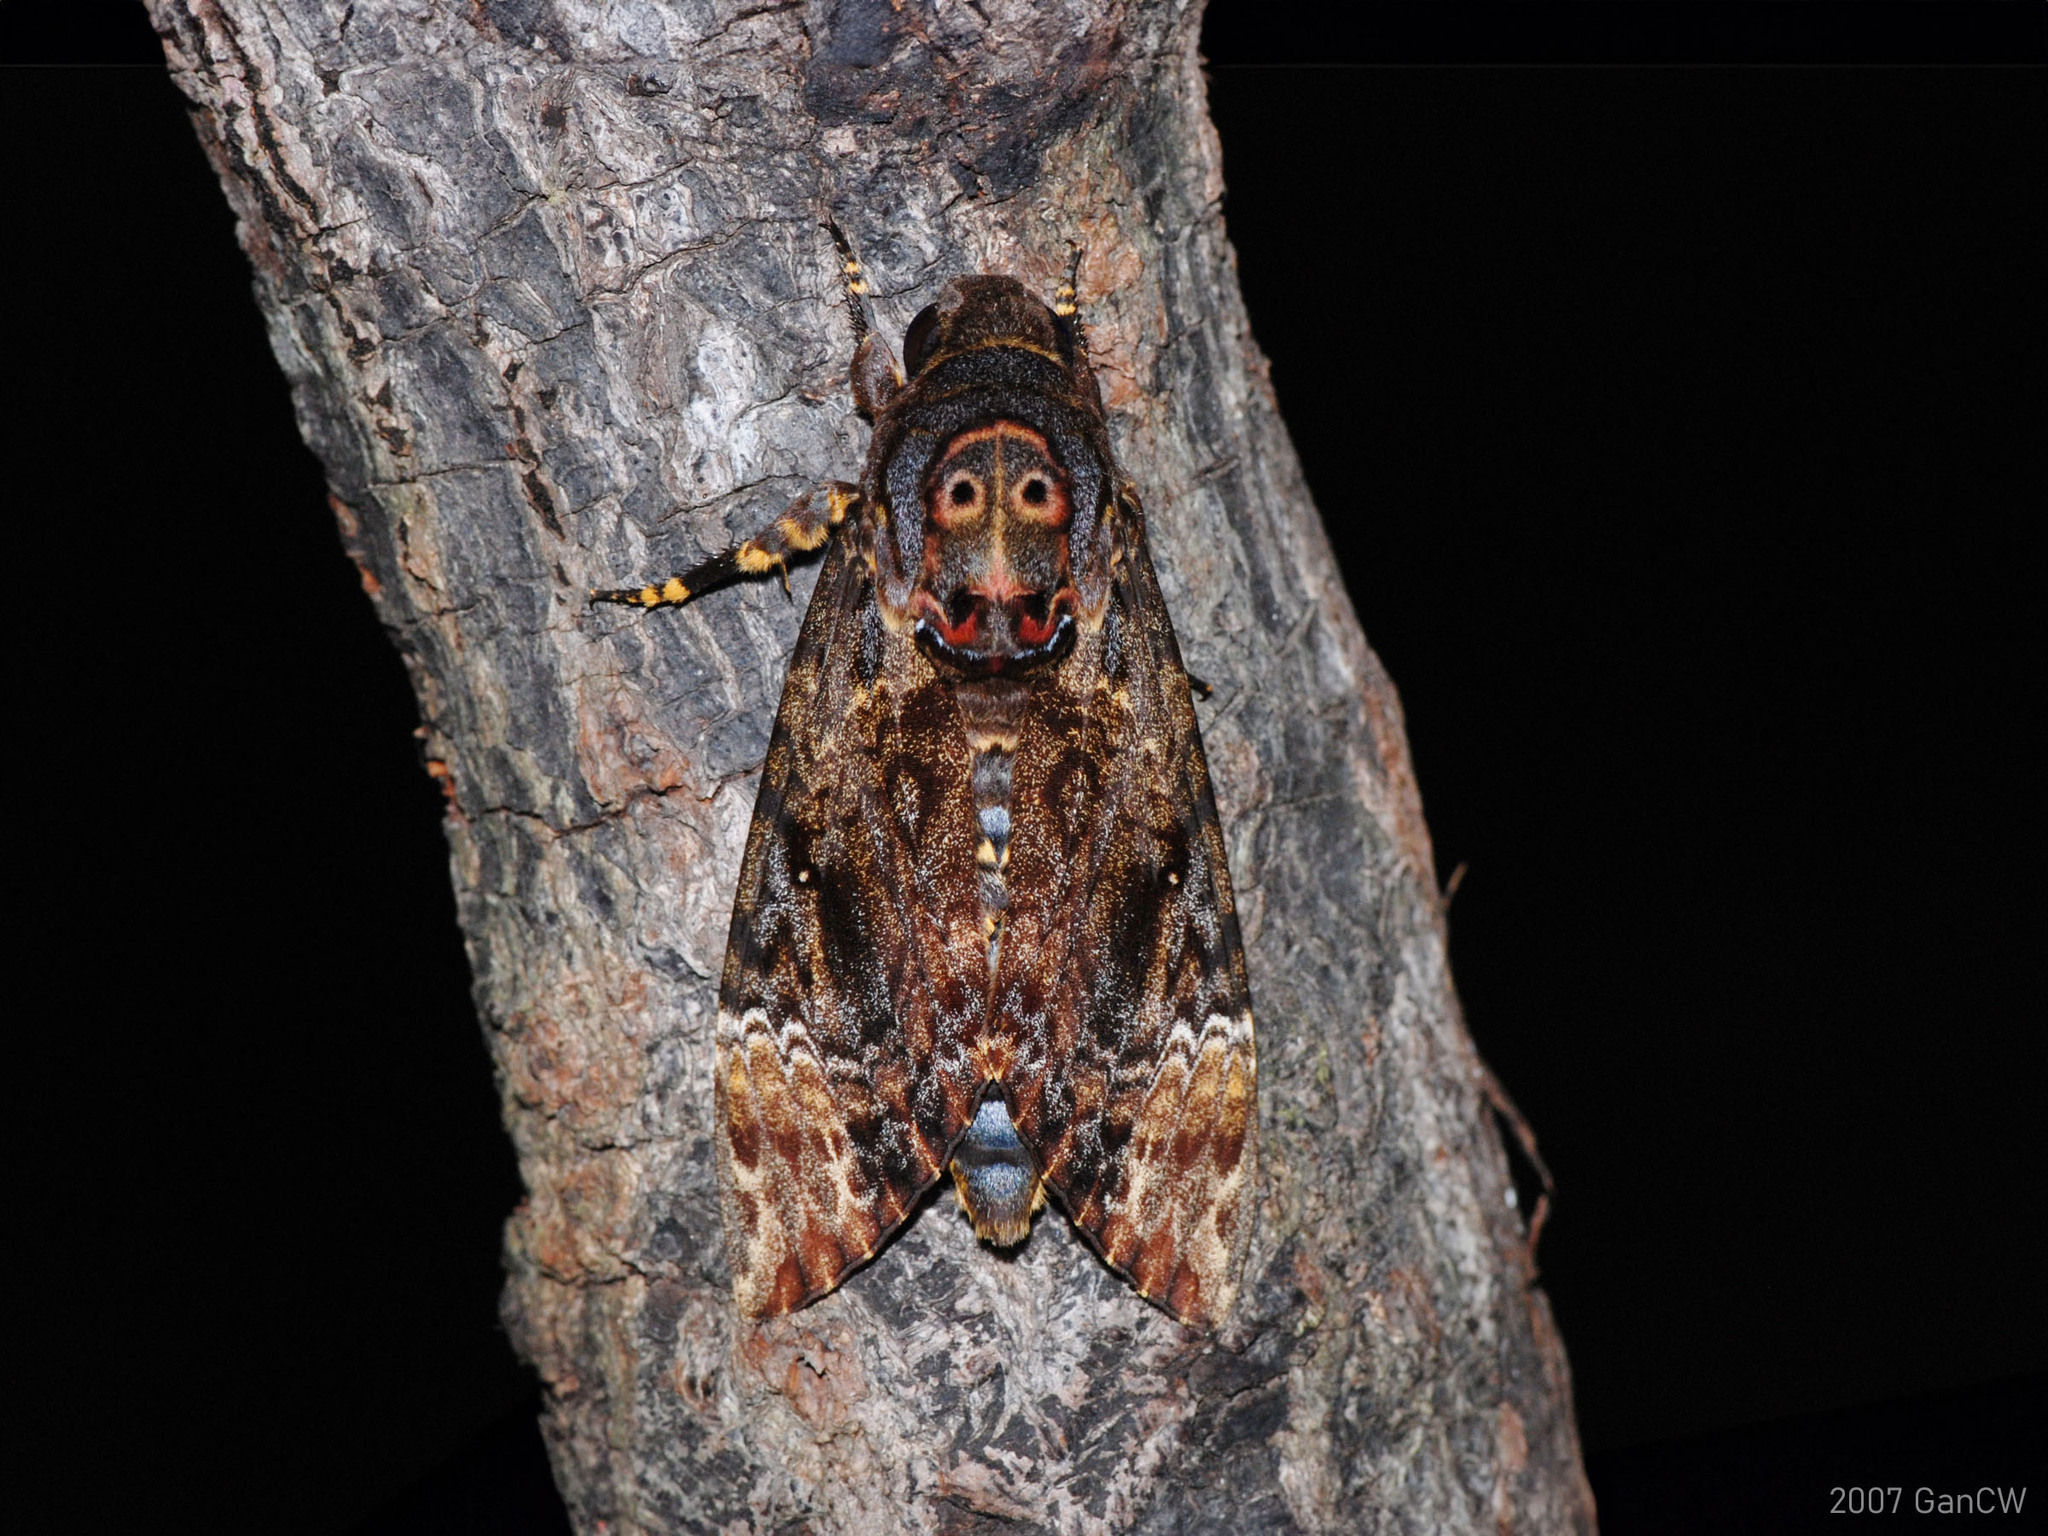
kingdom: Animalia
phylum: Arthropoda
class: Insecta
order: Lepidoptera
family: Sphingidae
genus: Acherontia
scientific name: Acherontia lachesis
